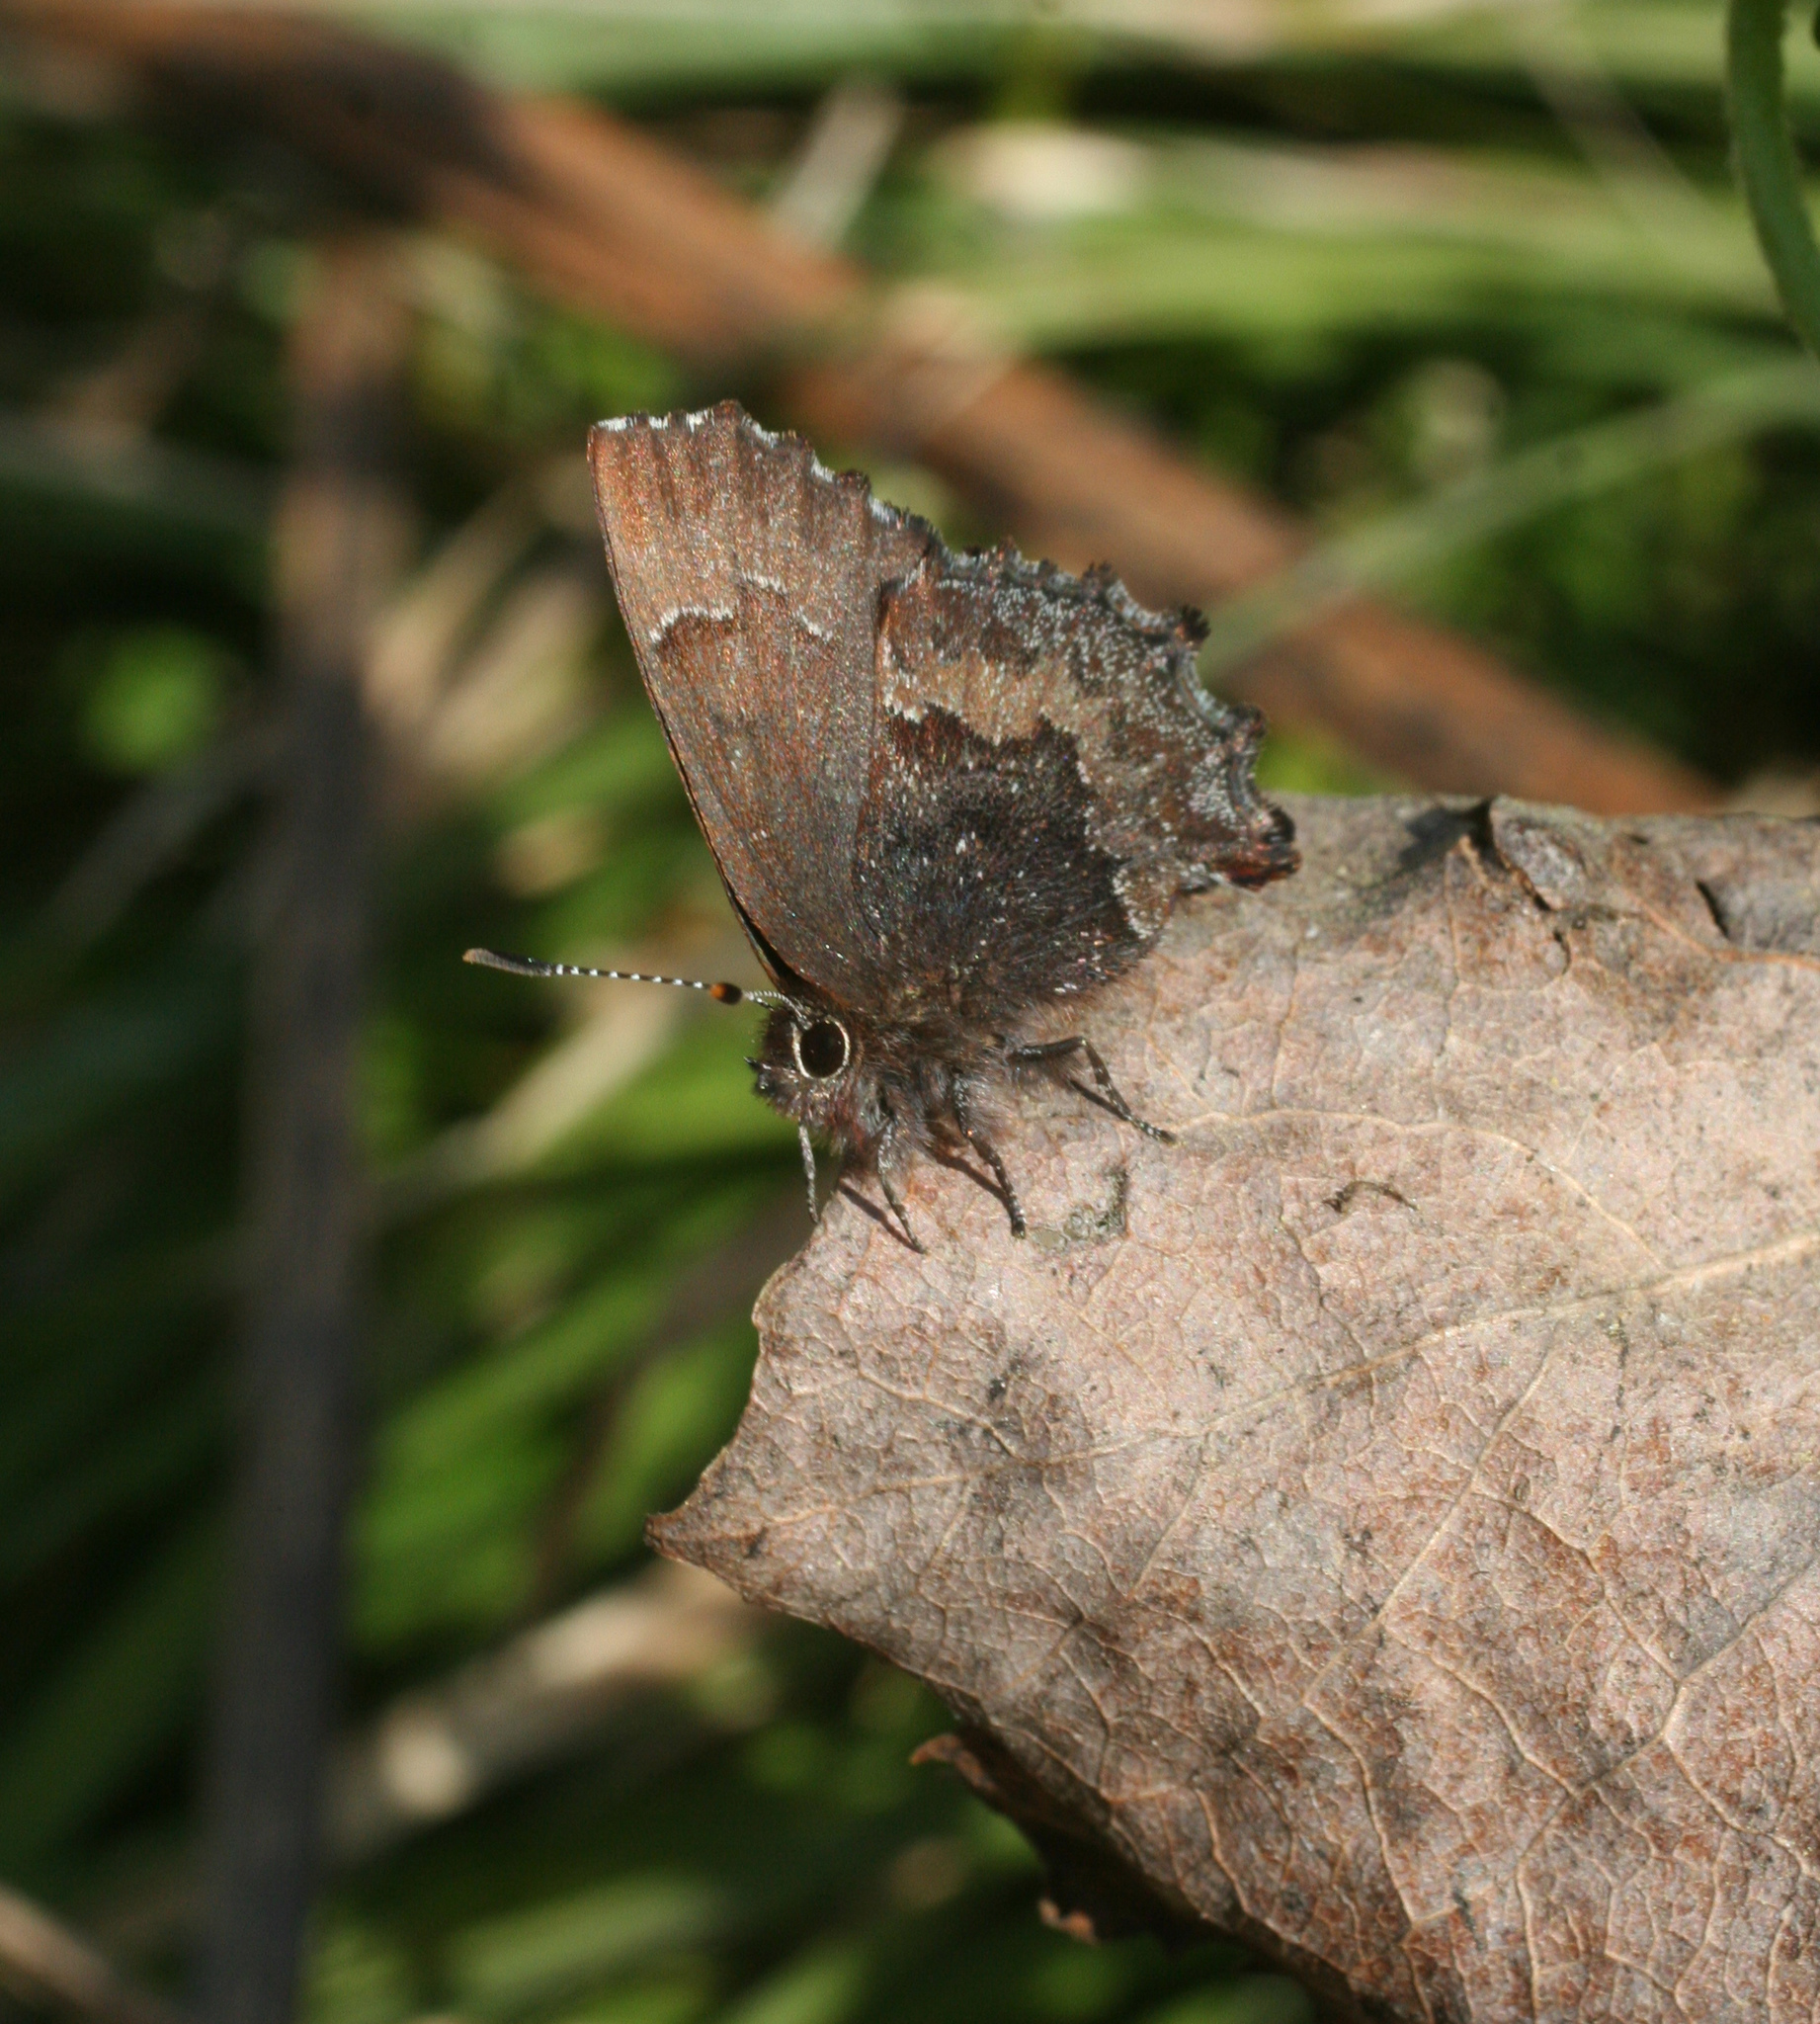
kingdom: Animalia
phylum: Arthropoda
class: Insecta
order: Lepidoptera
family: Lycaenidae
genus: Ginzia
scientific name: Ginzia Ahlbergia frivaldszkyi
